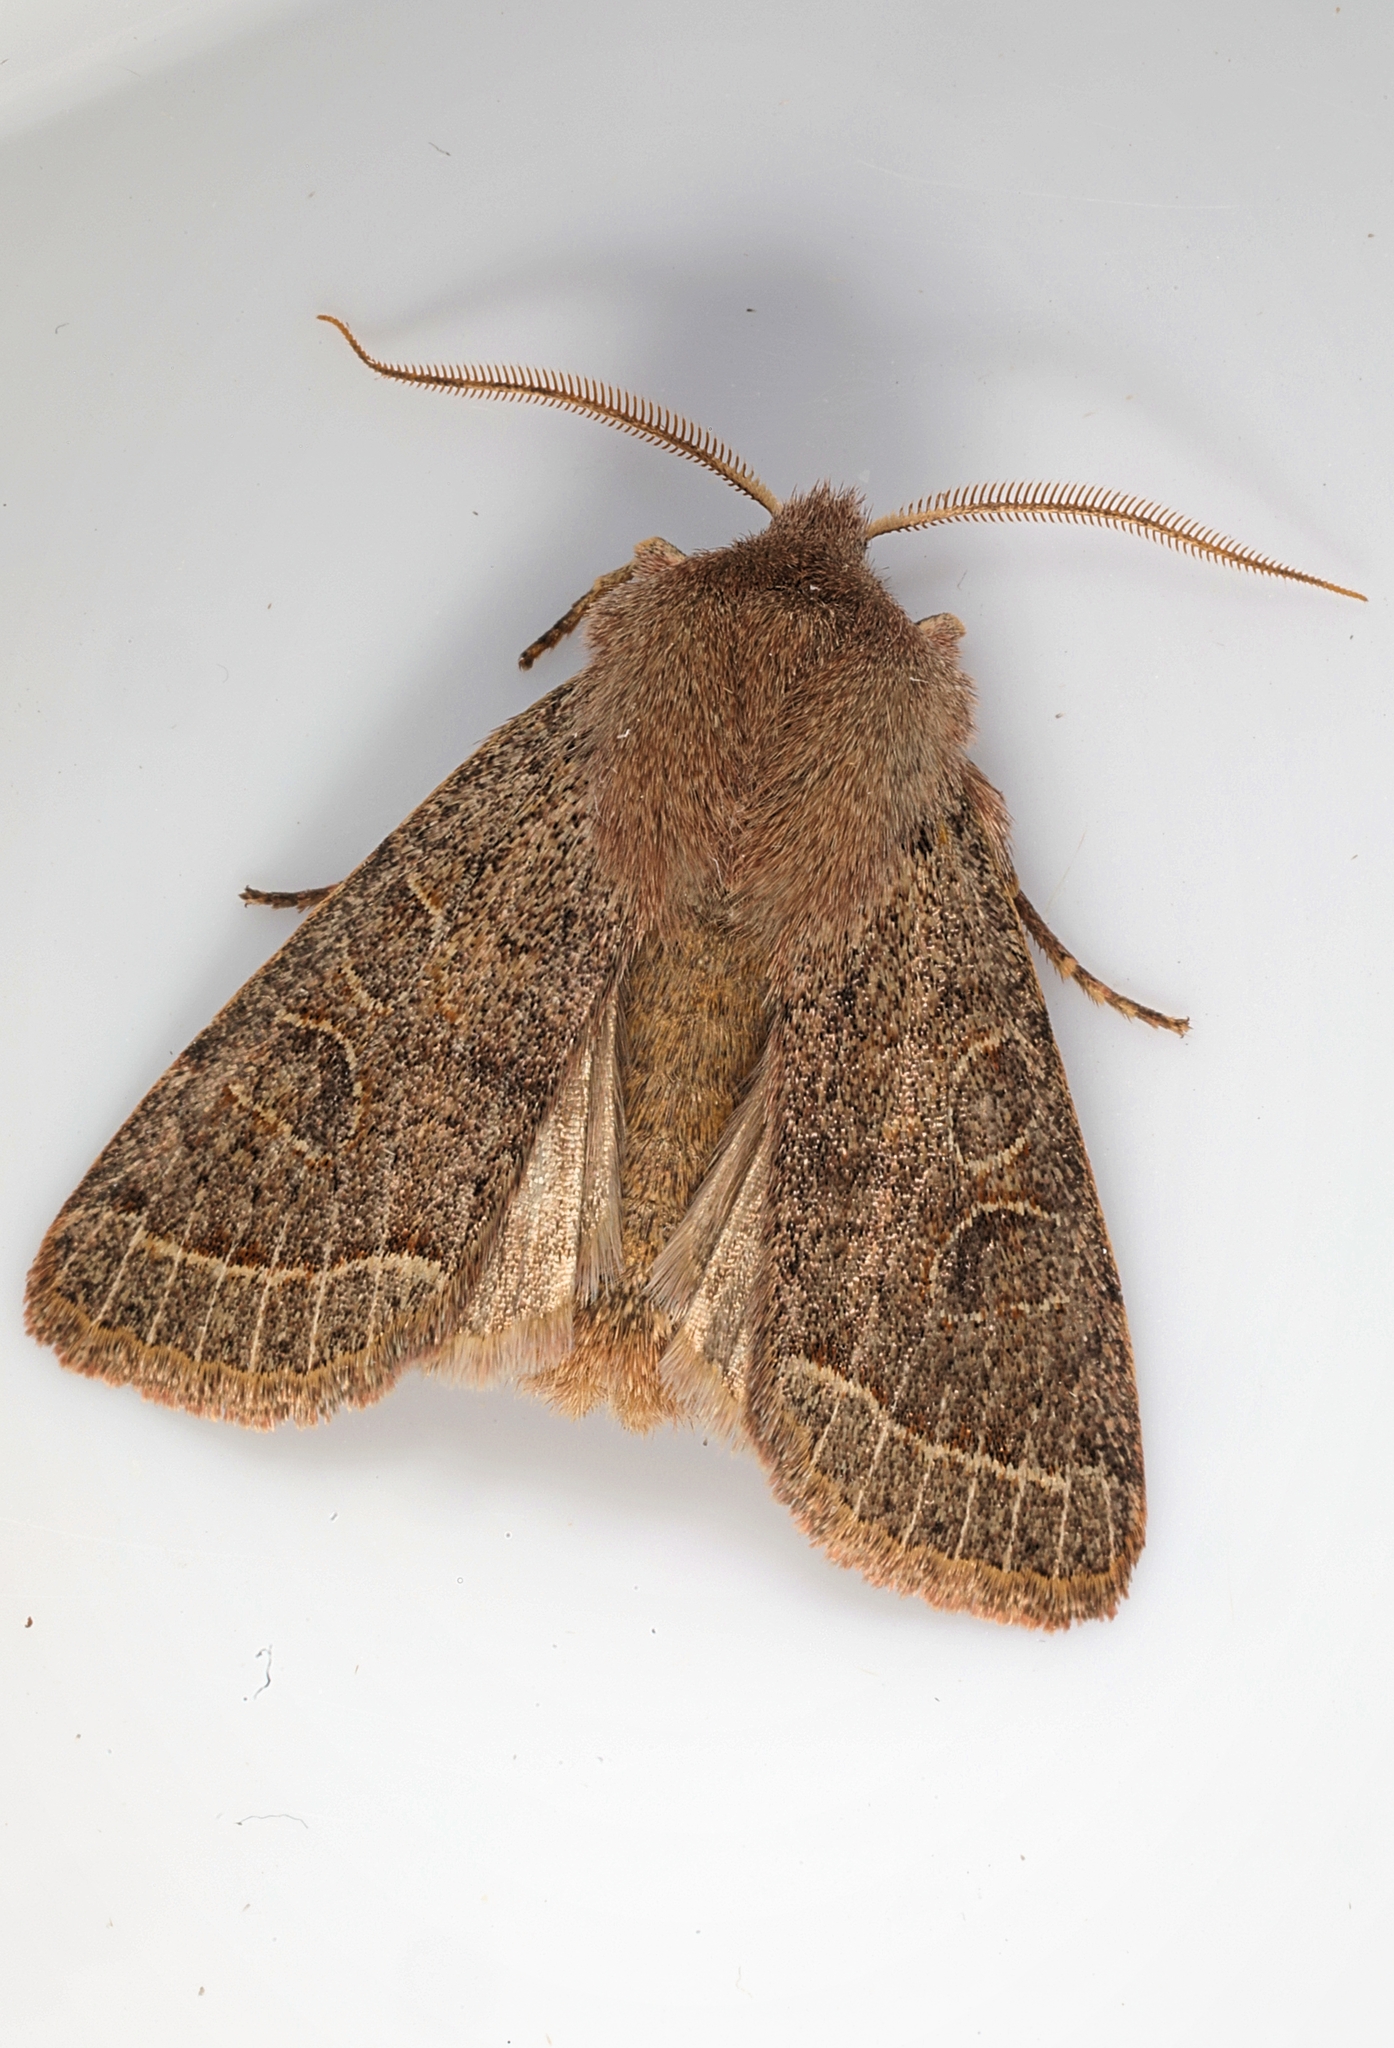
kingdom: Animalia
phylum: Arthropoda
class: Insecta
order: Lepidoptera
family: Noctuidae
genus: Orthosia
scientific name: Orthosia cerasi
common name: Common quaker
